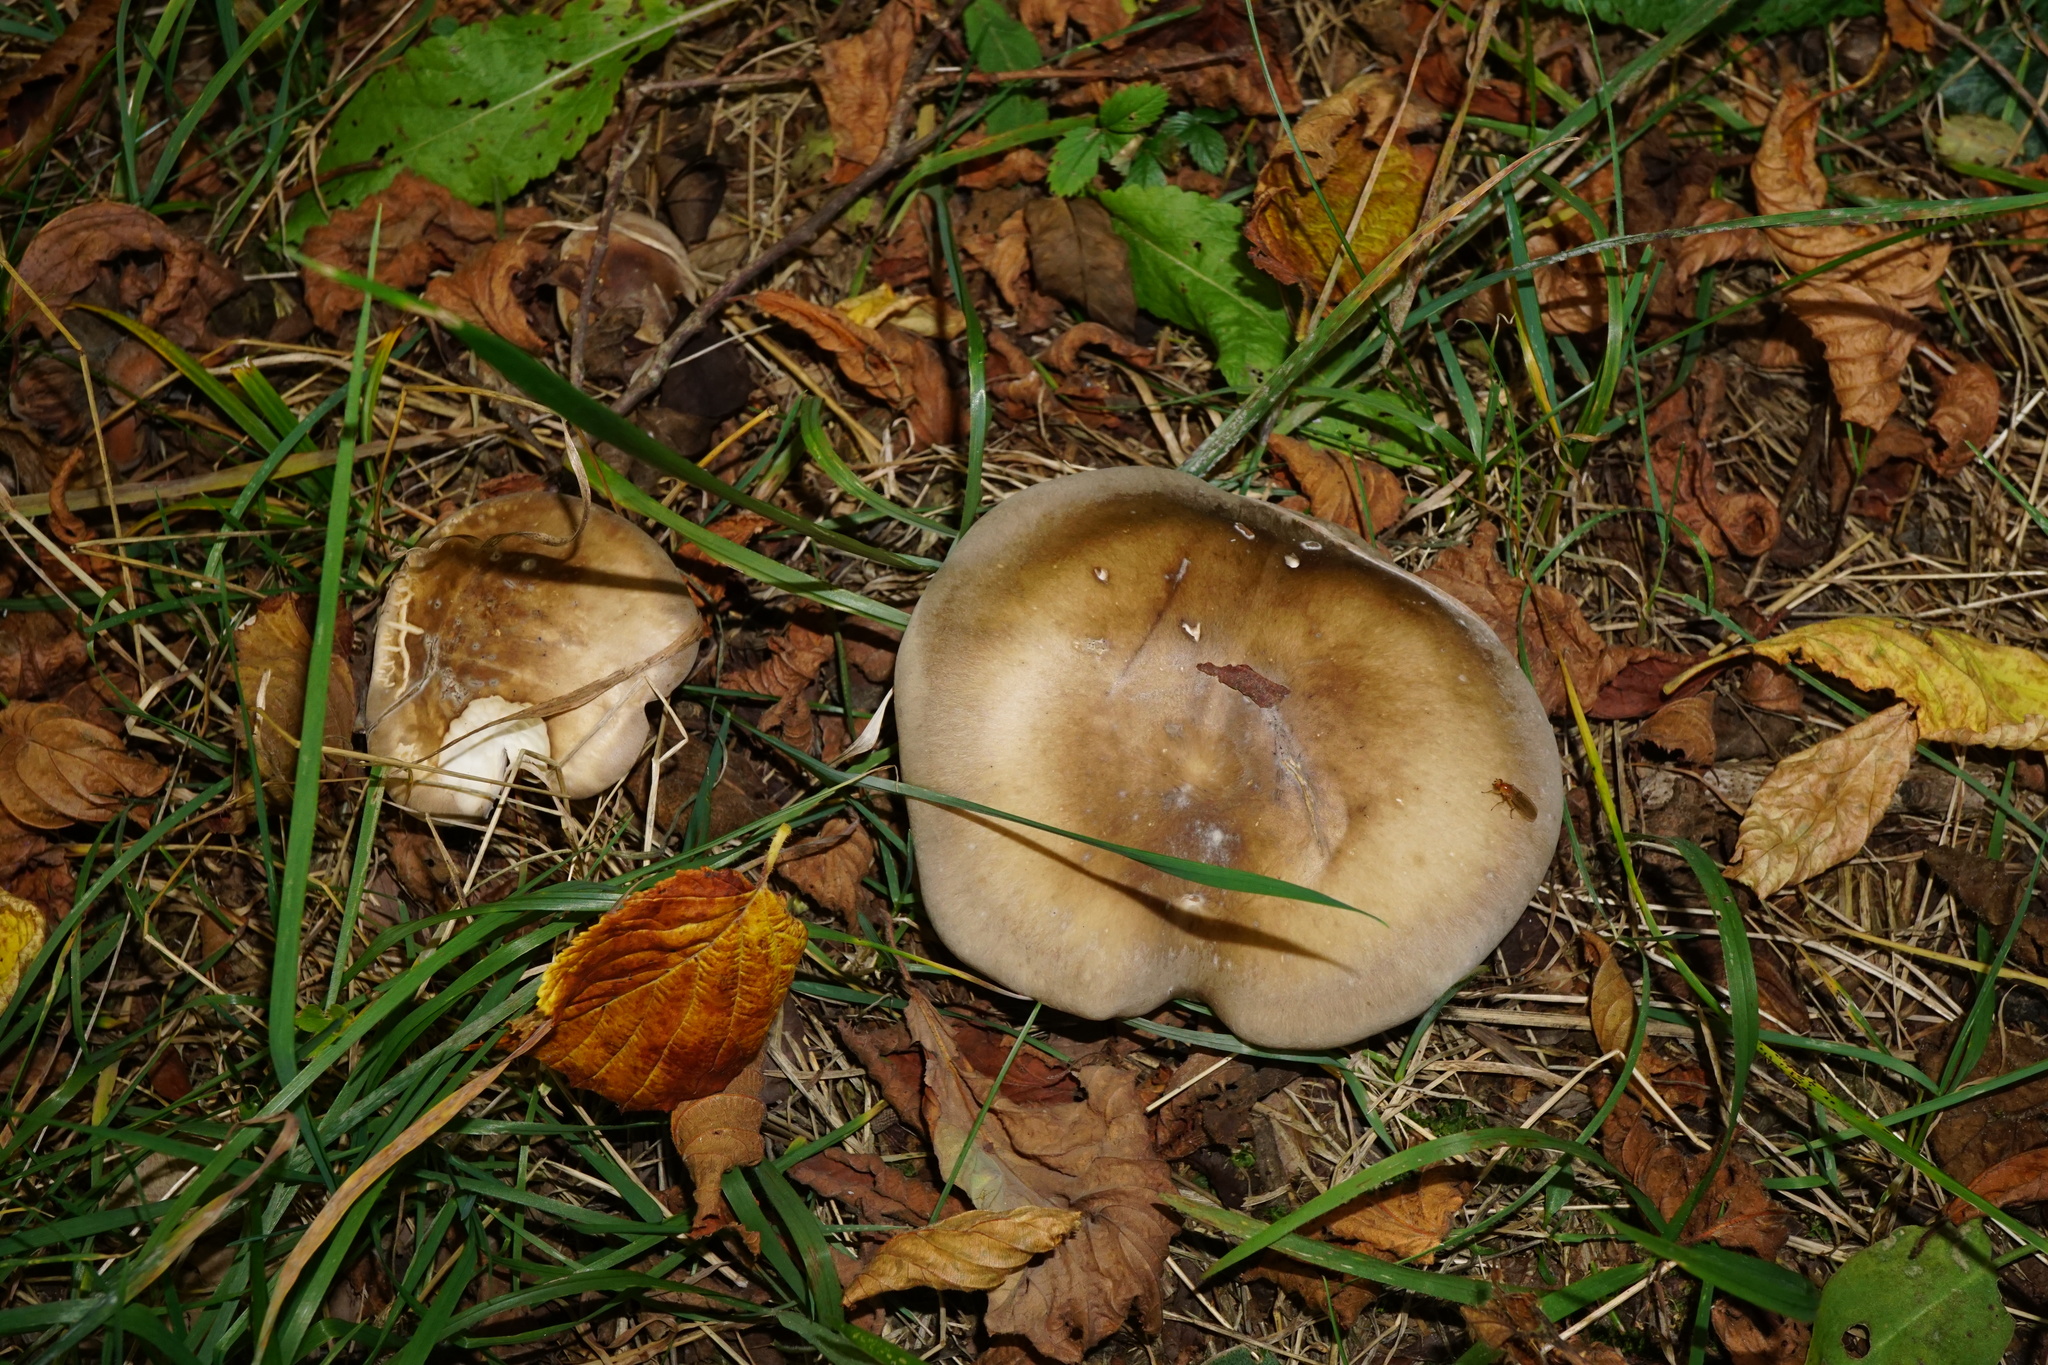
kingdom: Fungi
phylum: Basidiomycota
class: Agaricomycetes
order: Agaricales
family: Tricholomataceae
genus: Clitocybe
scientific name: Clitocybe nebularis
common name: Clouded agaric
